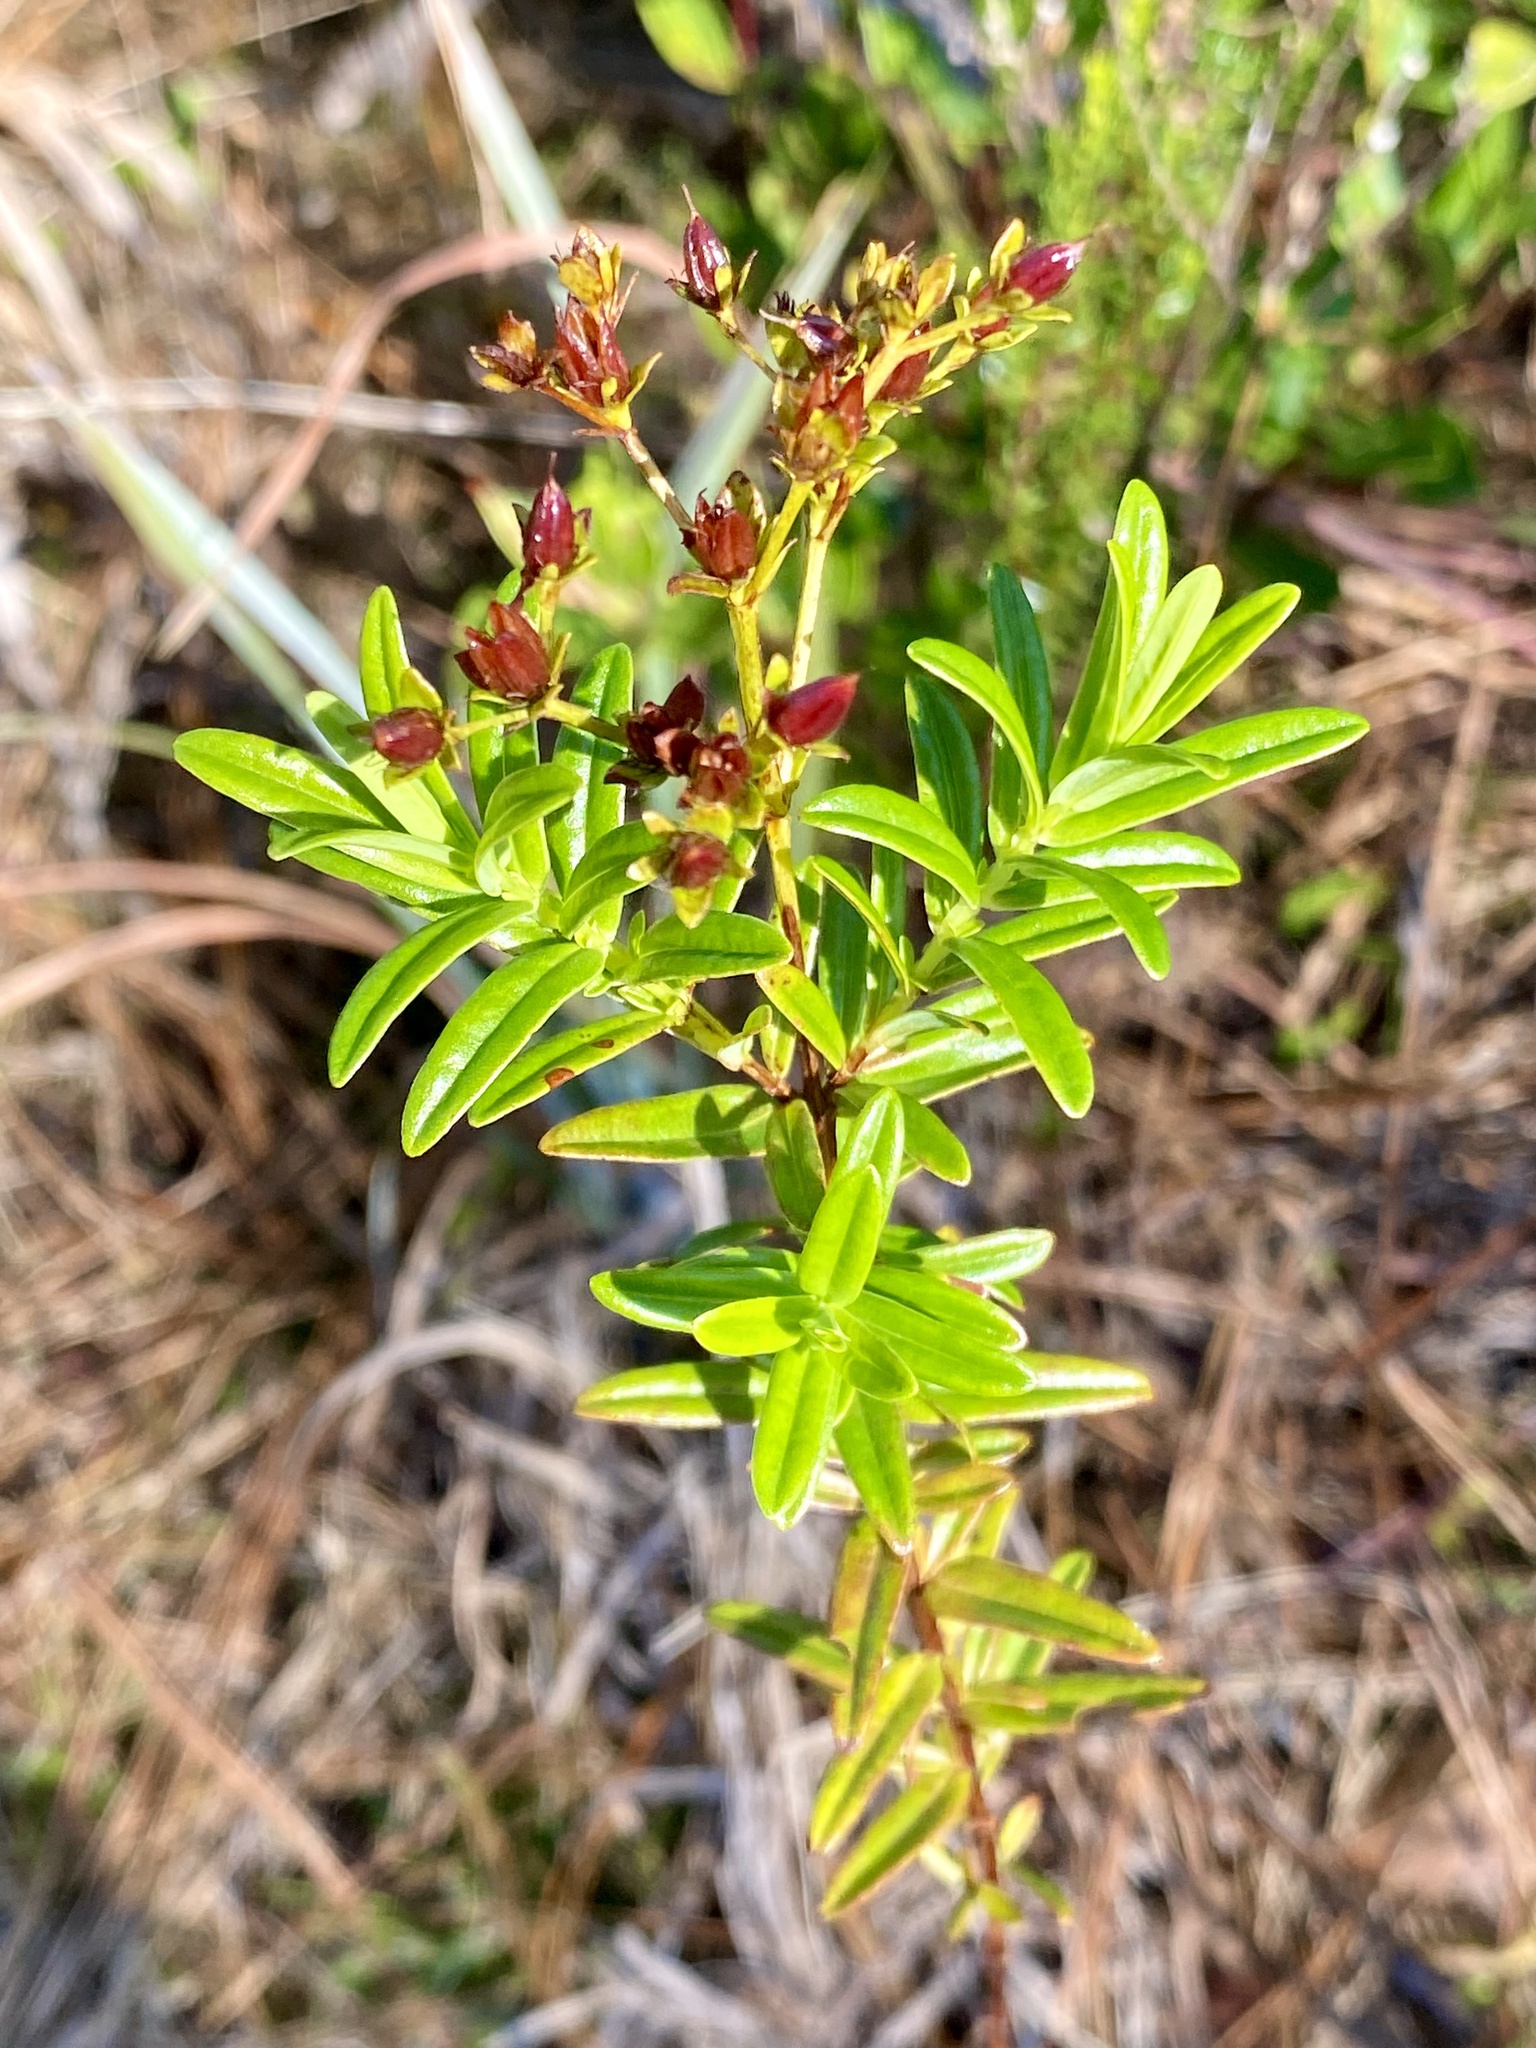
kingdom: Plantae
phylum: Tracheophyta
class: Magnoliopsida
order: Malpighiales
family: Hypericaceae
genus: Hypericum
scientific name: Hypericum cistifolium
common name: Round-pod st. john's-wort
